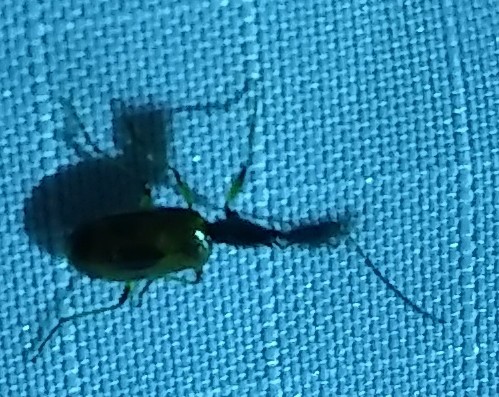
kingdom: Animalia
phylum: Arthropoda
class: Insecta
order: Coleoptera
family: Carabidae
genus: Colliuris
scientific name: Colliuris pensylvanica
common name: Long-necked ground beetle
